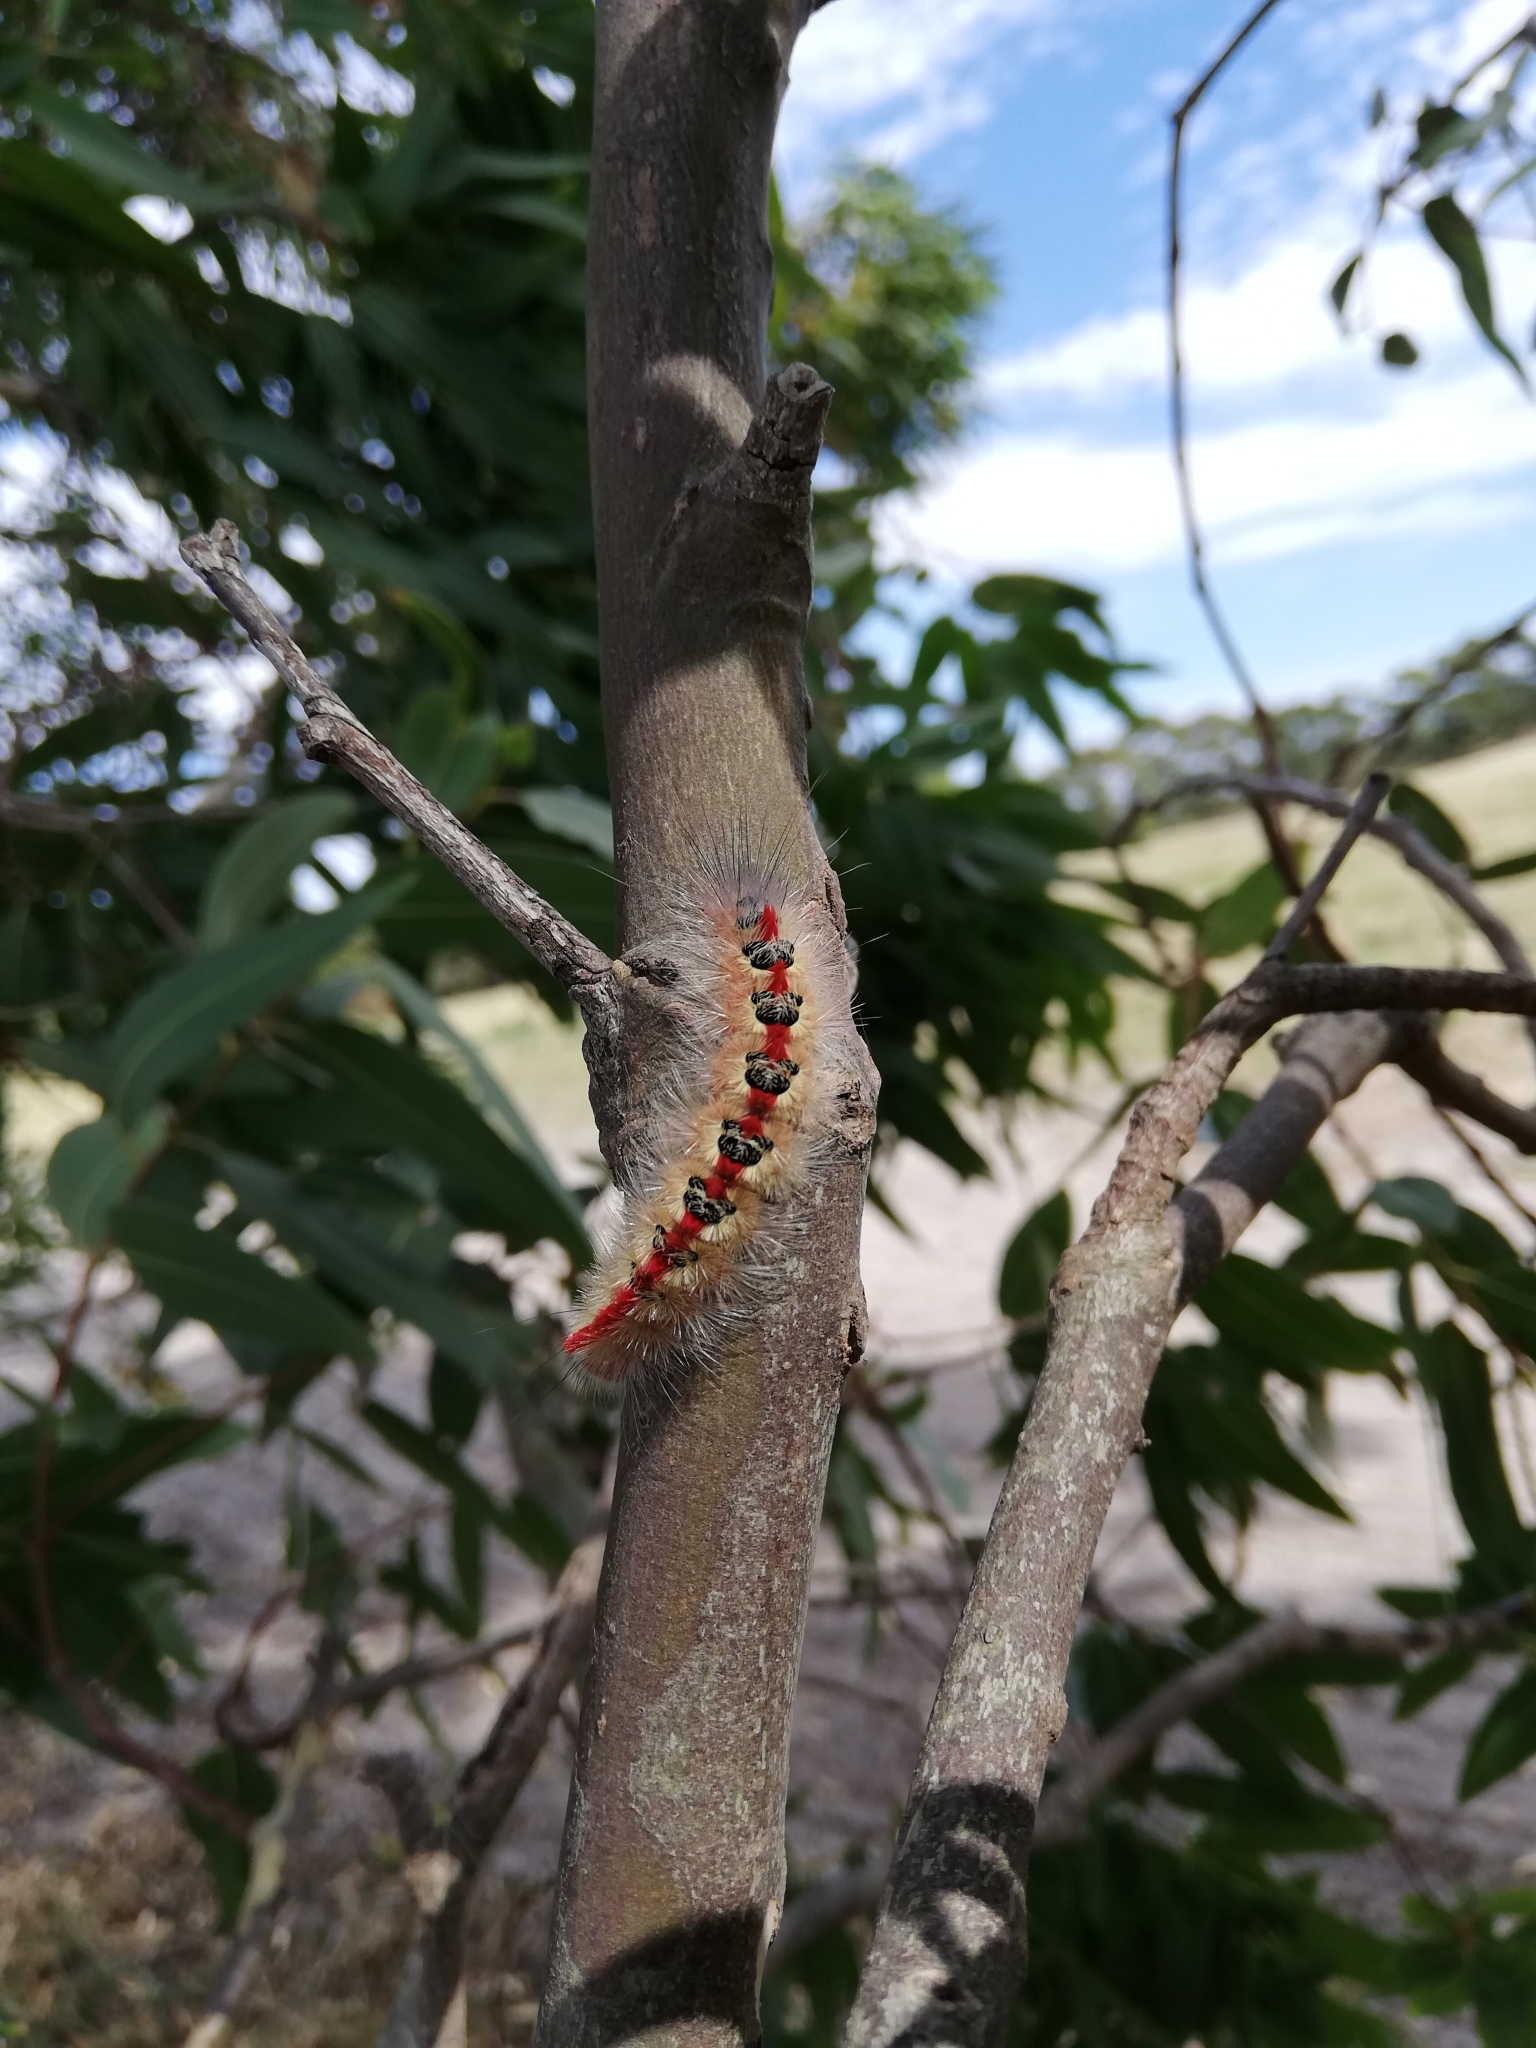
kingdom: Animalia
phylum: Arthropoda
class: Insecta
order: Lepidoptera
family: Notodontidae
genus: Trichiocercus
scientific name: Trichiocercus sparshalli
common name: Long-tailed satin
